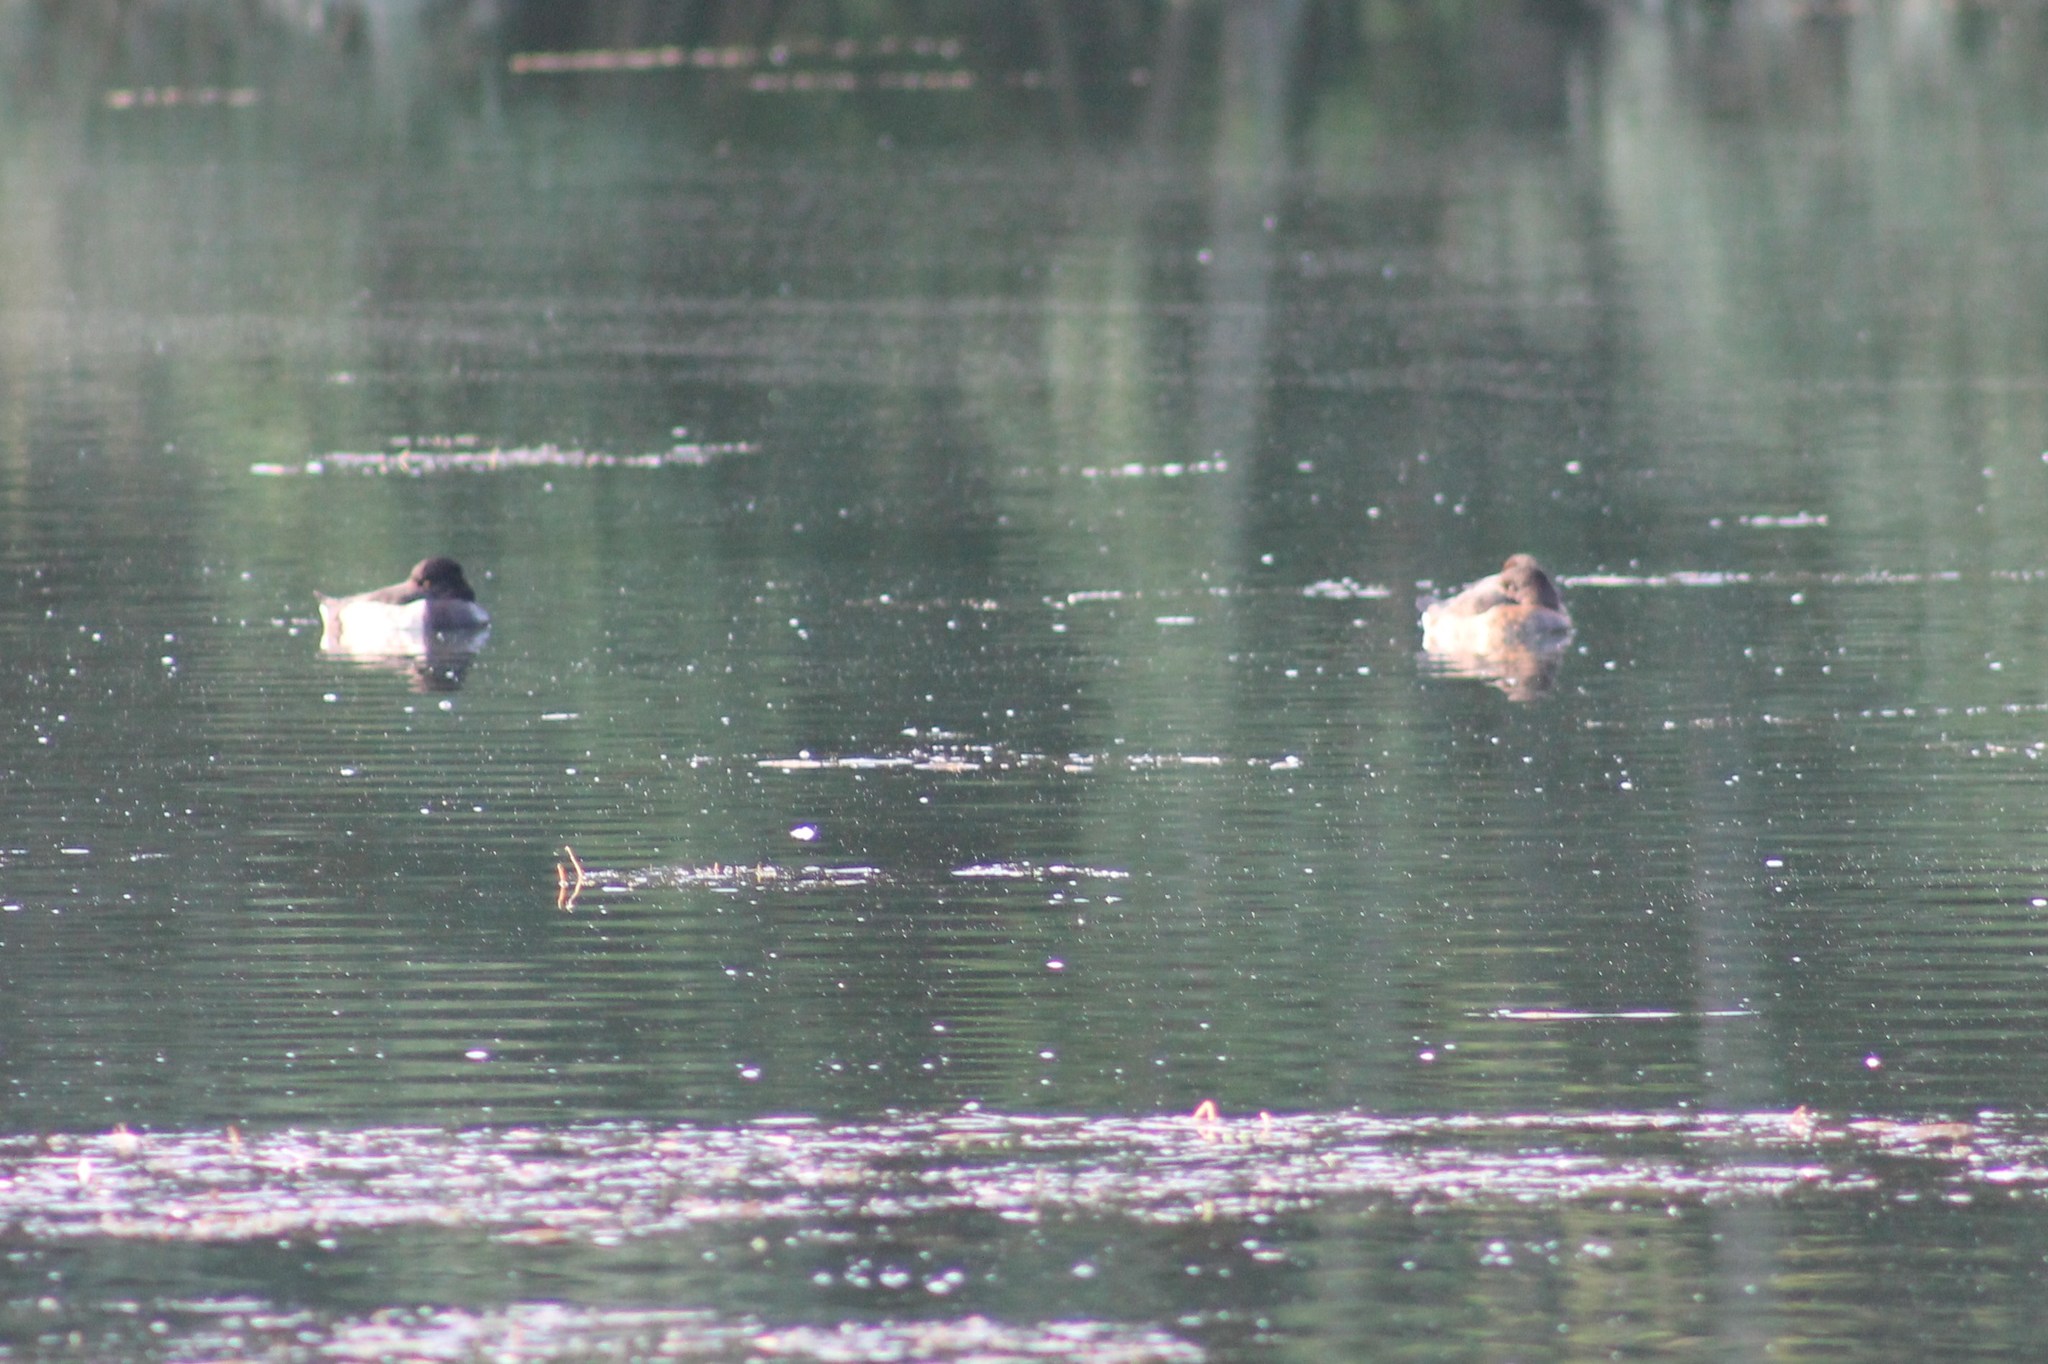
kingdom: Animalia
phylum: Chordata
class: Aves
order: Anseriformes
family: Anatidae
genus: Aythya
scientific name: Aythya fuligula
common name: Tufted duck
